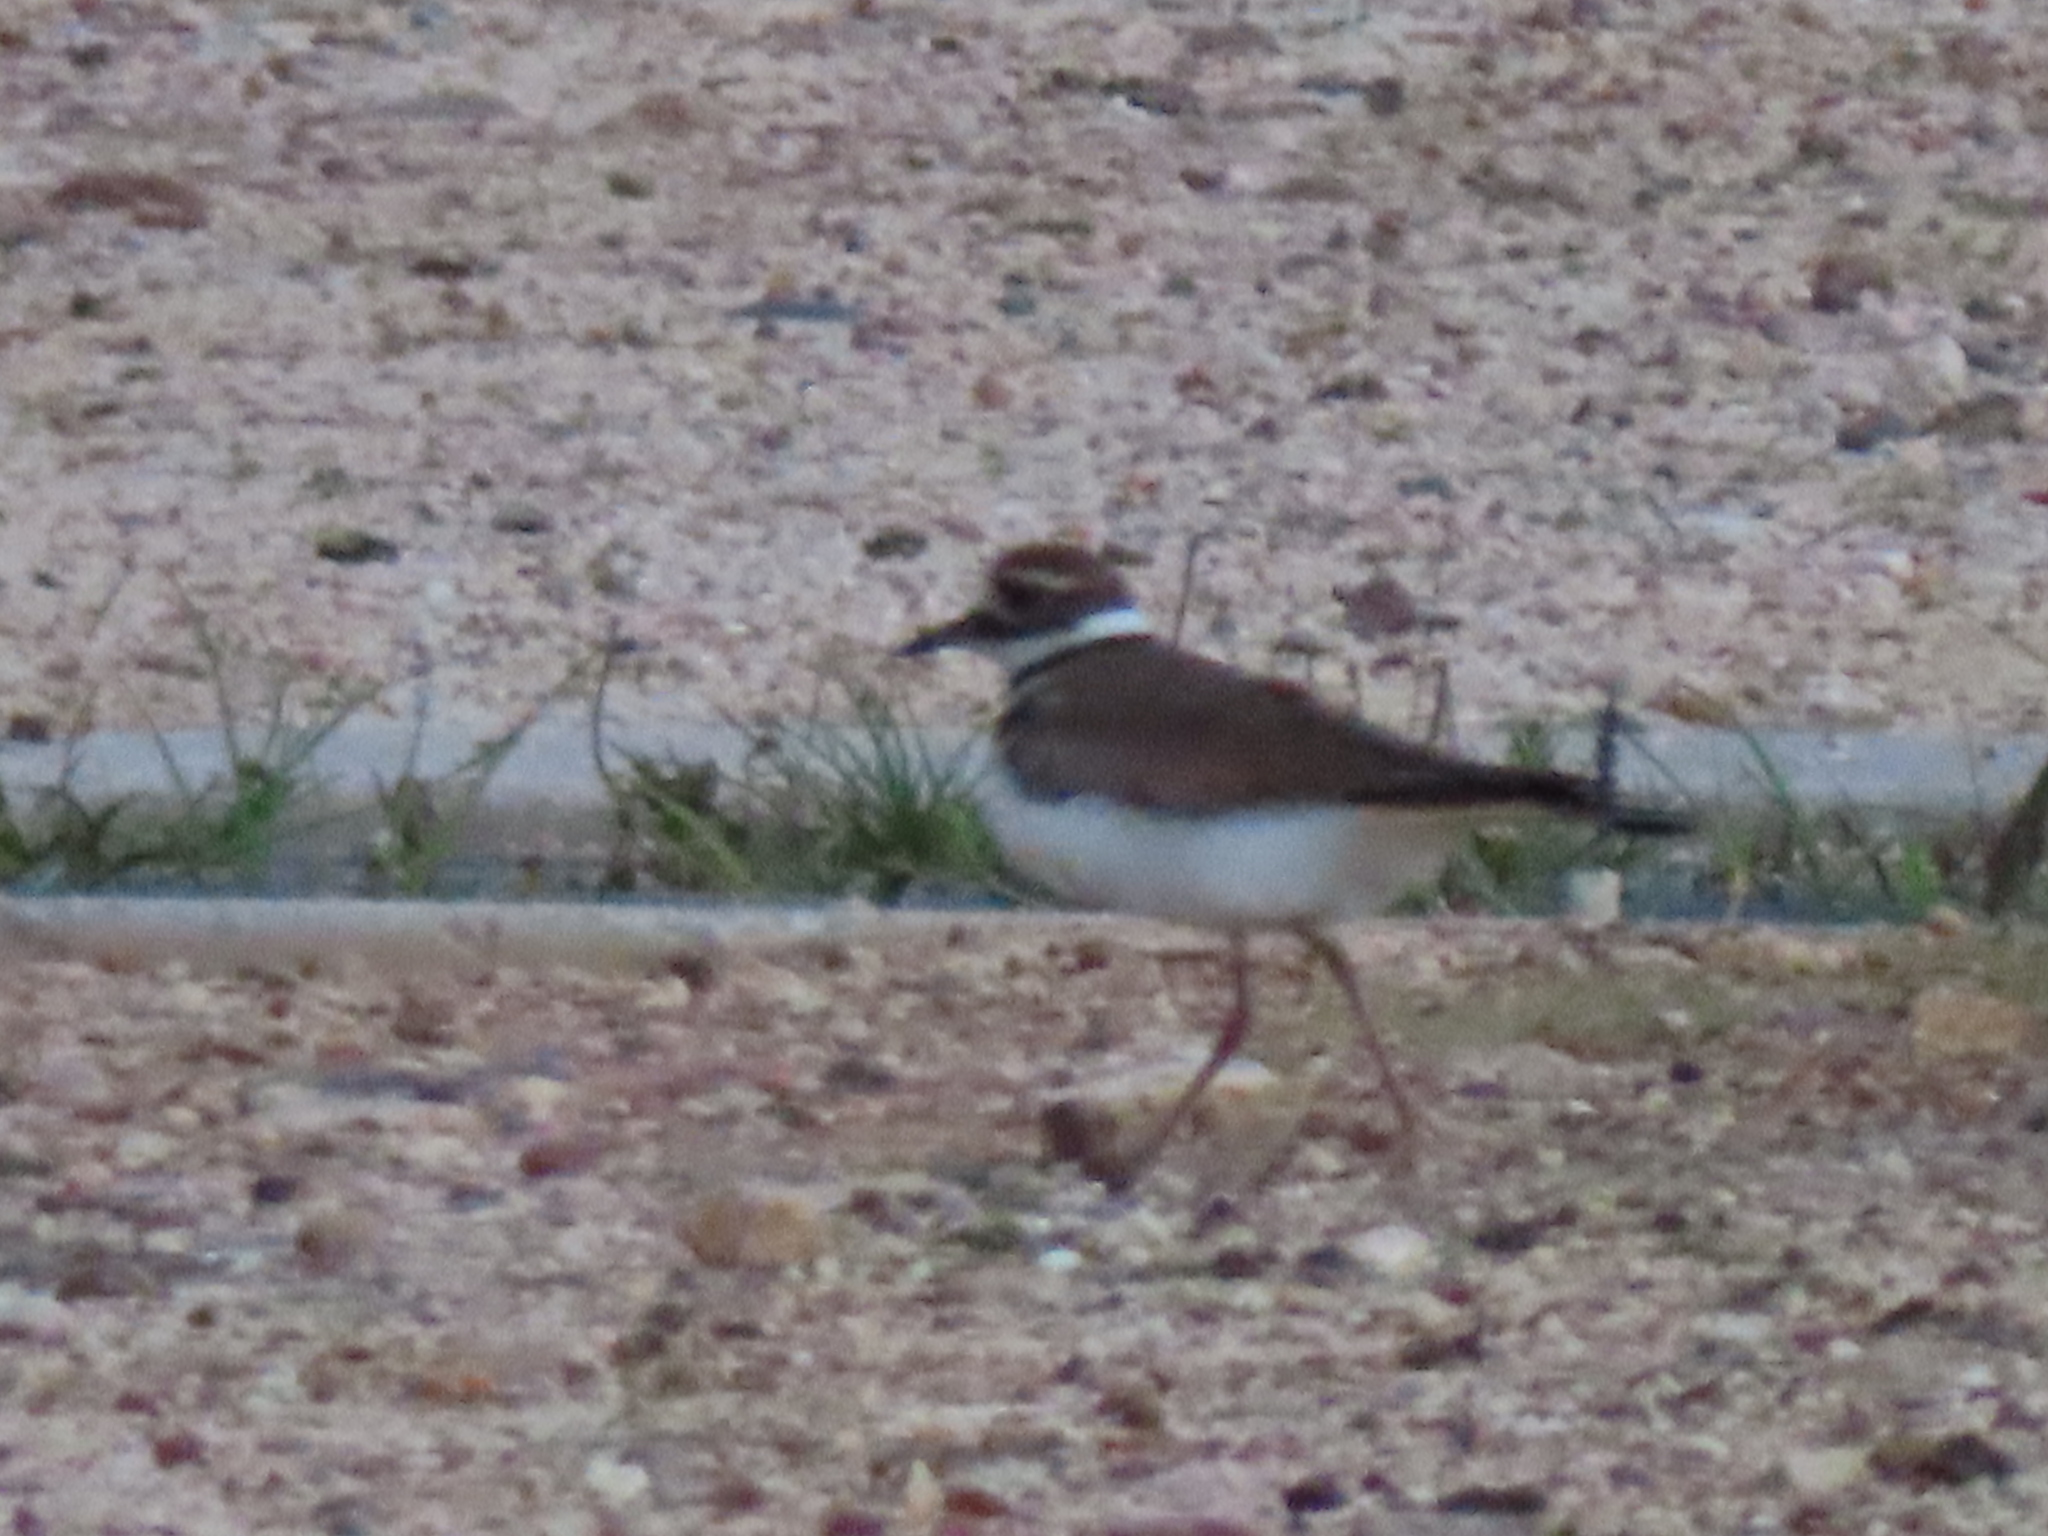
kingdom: Animalia
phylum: Chordata
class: Aves
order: Charadriiformes
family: Charadriidae
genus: Charadrius
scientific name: Charadrius vociferus
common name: Killdeer
